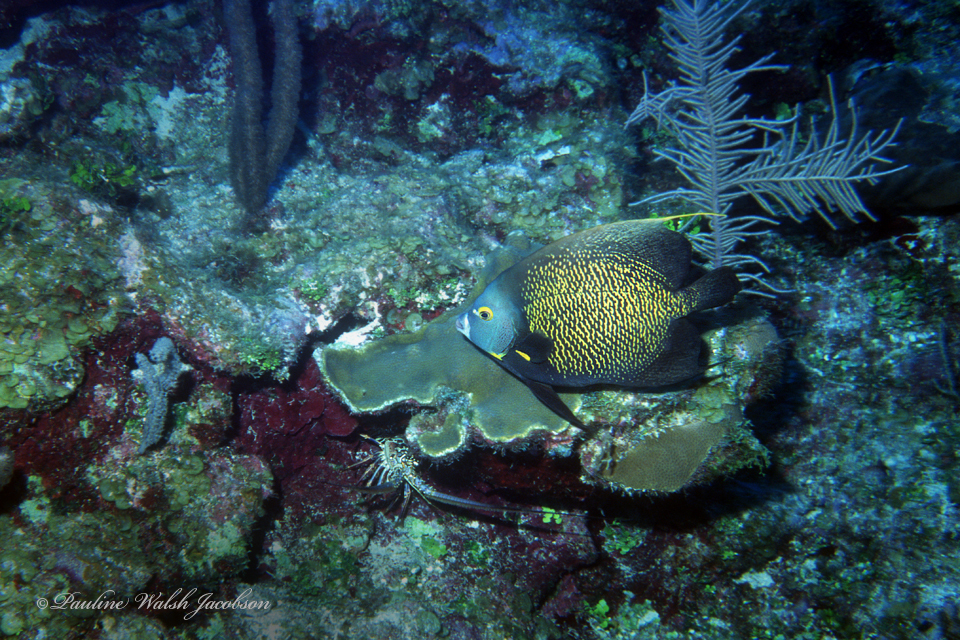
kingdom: Animalia
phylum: Chordata
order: Perciformes
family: Pomacanthidae
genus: Pomacanthus
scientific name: Pomacanthus paru
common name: French angelfish
